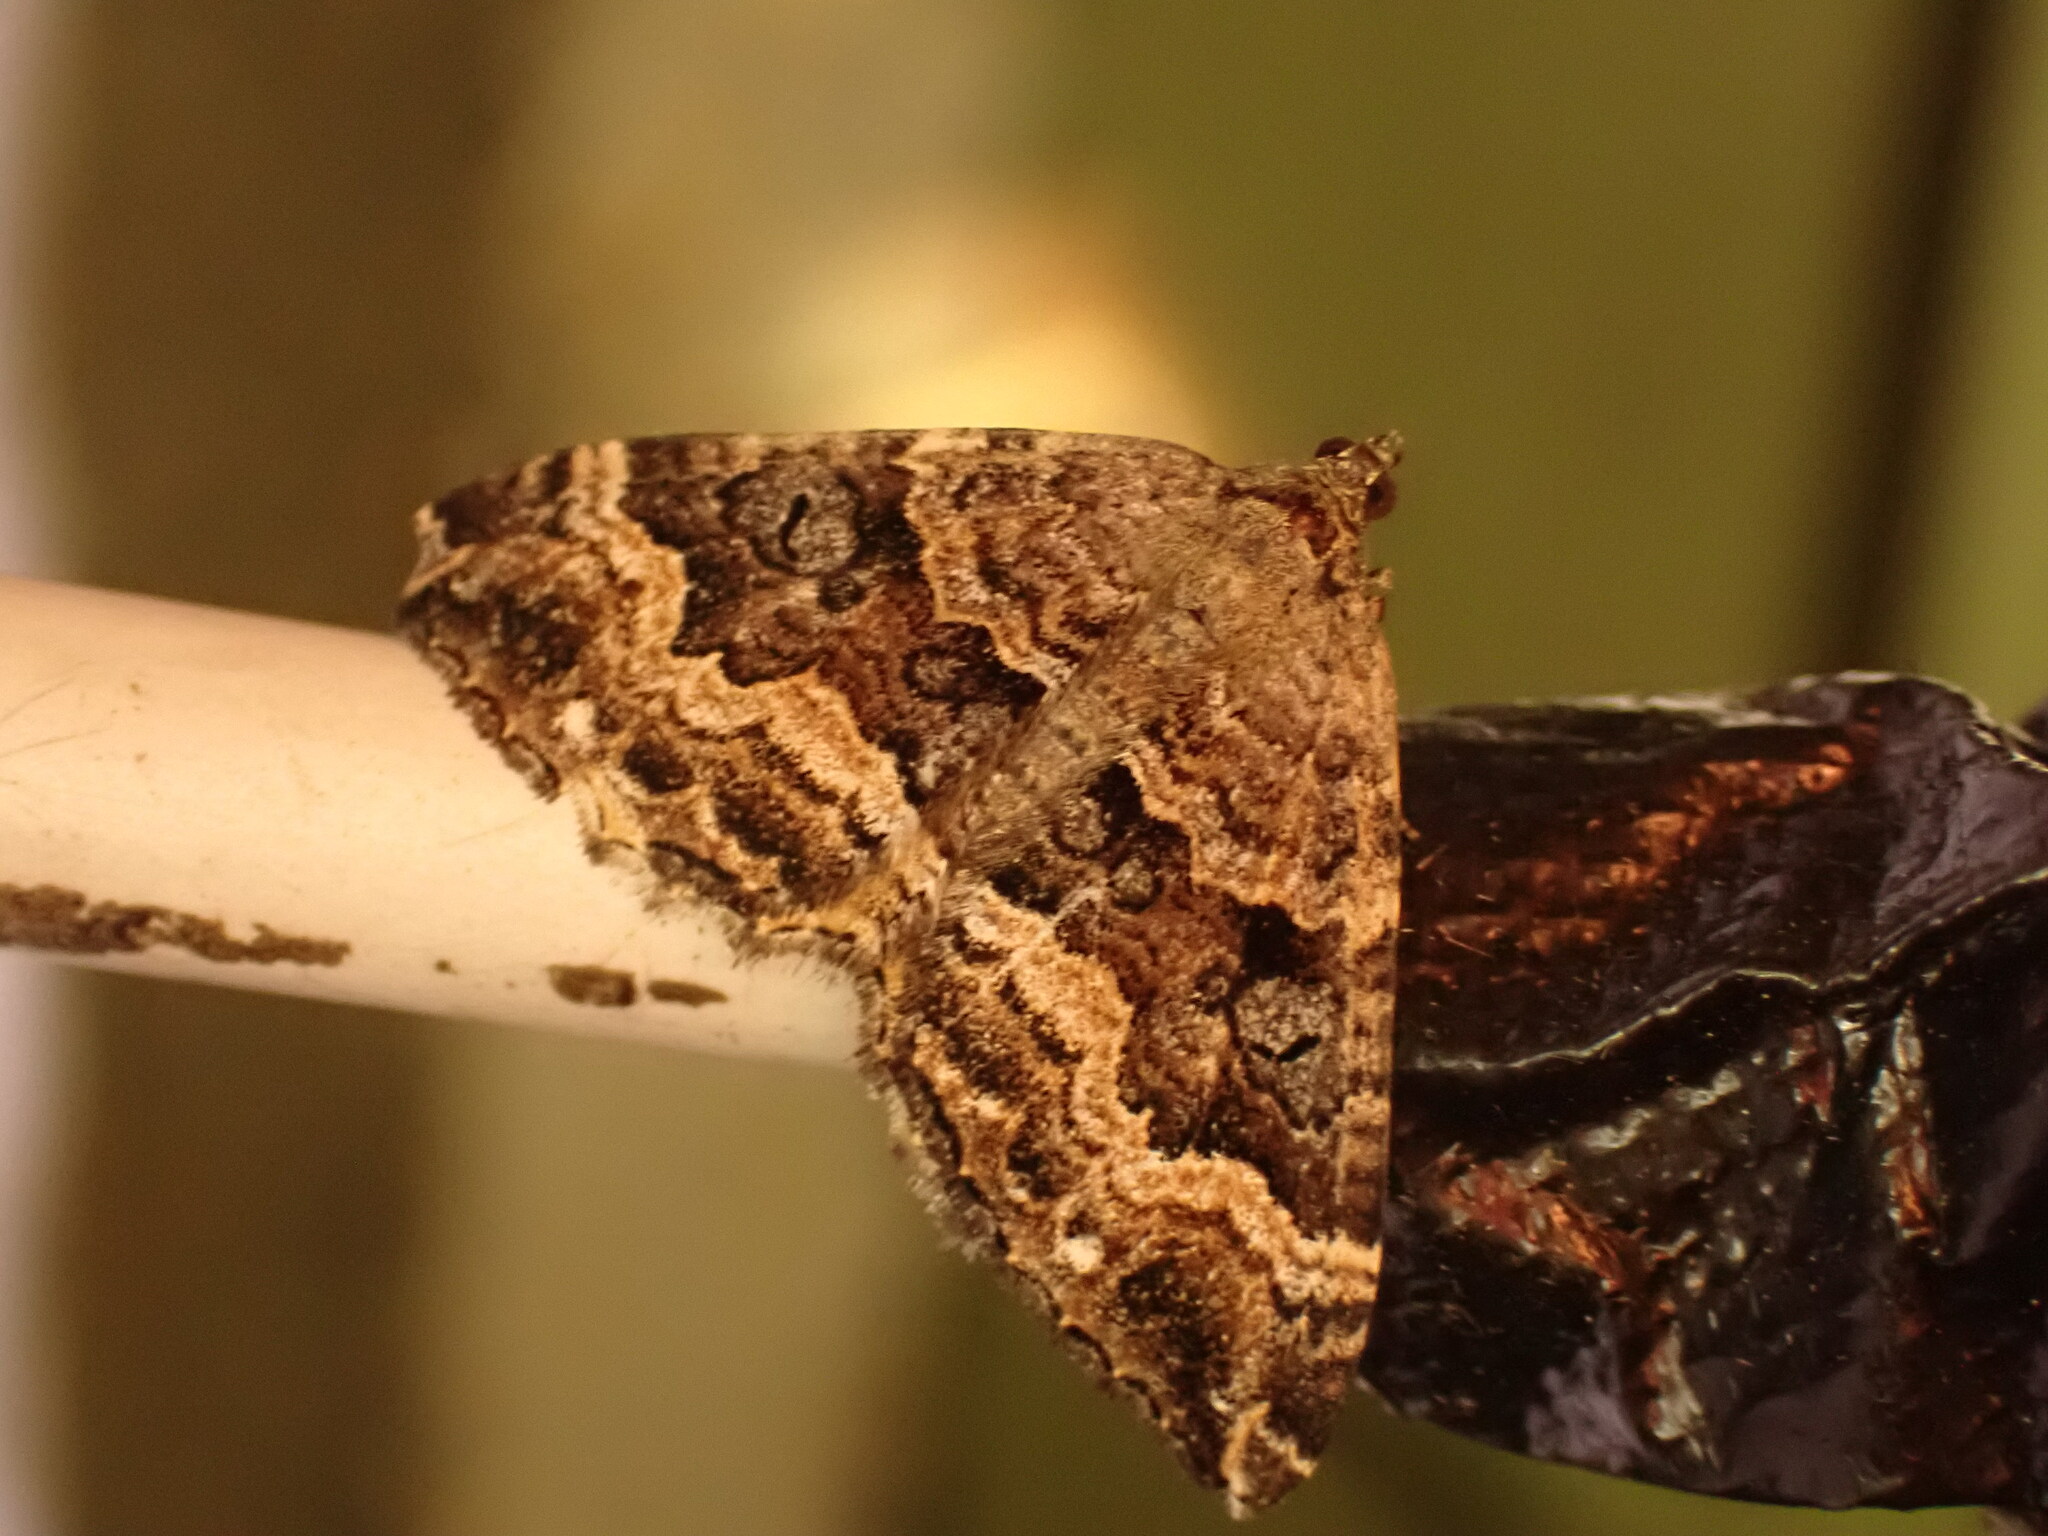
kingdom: Animalia
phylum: Arthropoda
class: Insecta
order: Lepidoptera
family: Geometridae
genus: Hydriomena
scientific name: Hydriomena deltoidata
